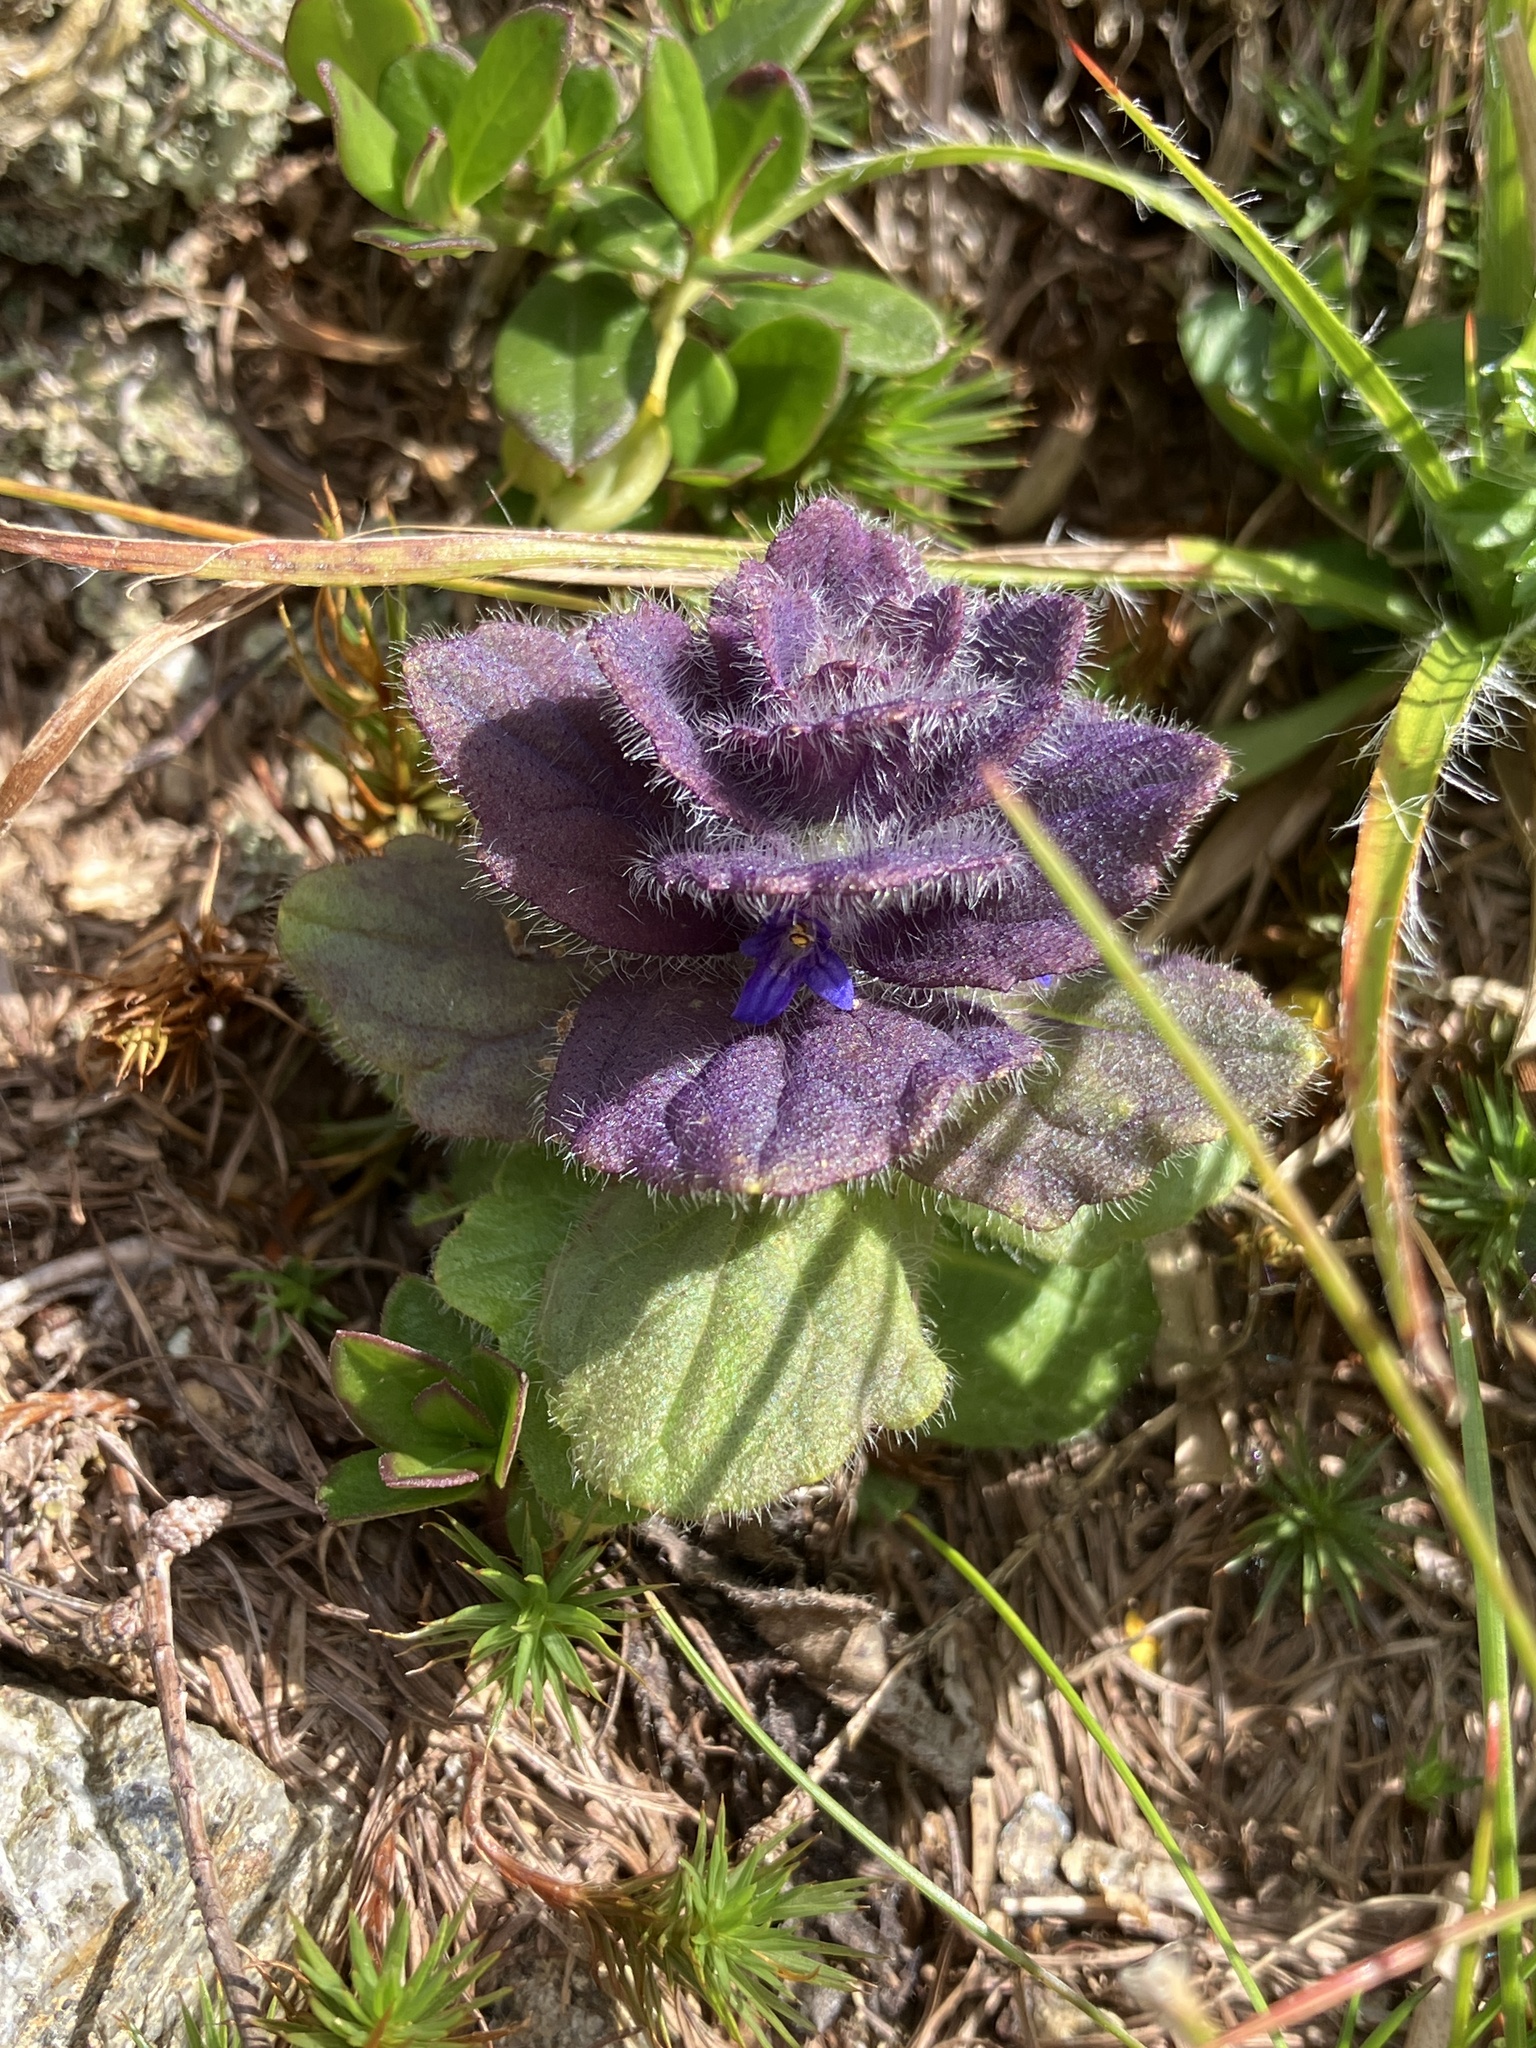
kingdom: Plantae
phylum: Tracheophyta
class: Magnoliopsida
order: Lamiales
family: Lamiaceae
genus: Ajuga
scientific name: Ajuga pyramidalis
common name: Pyramid bugle
